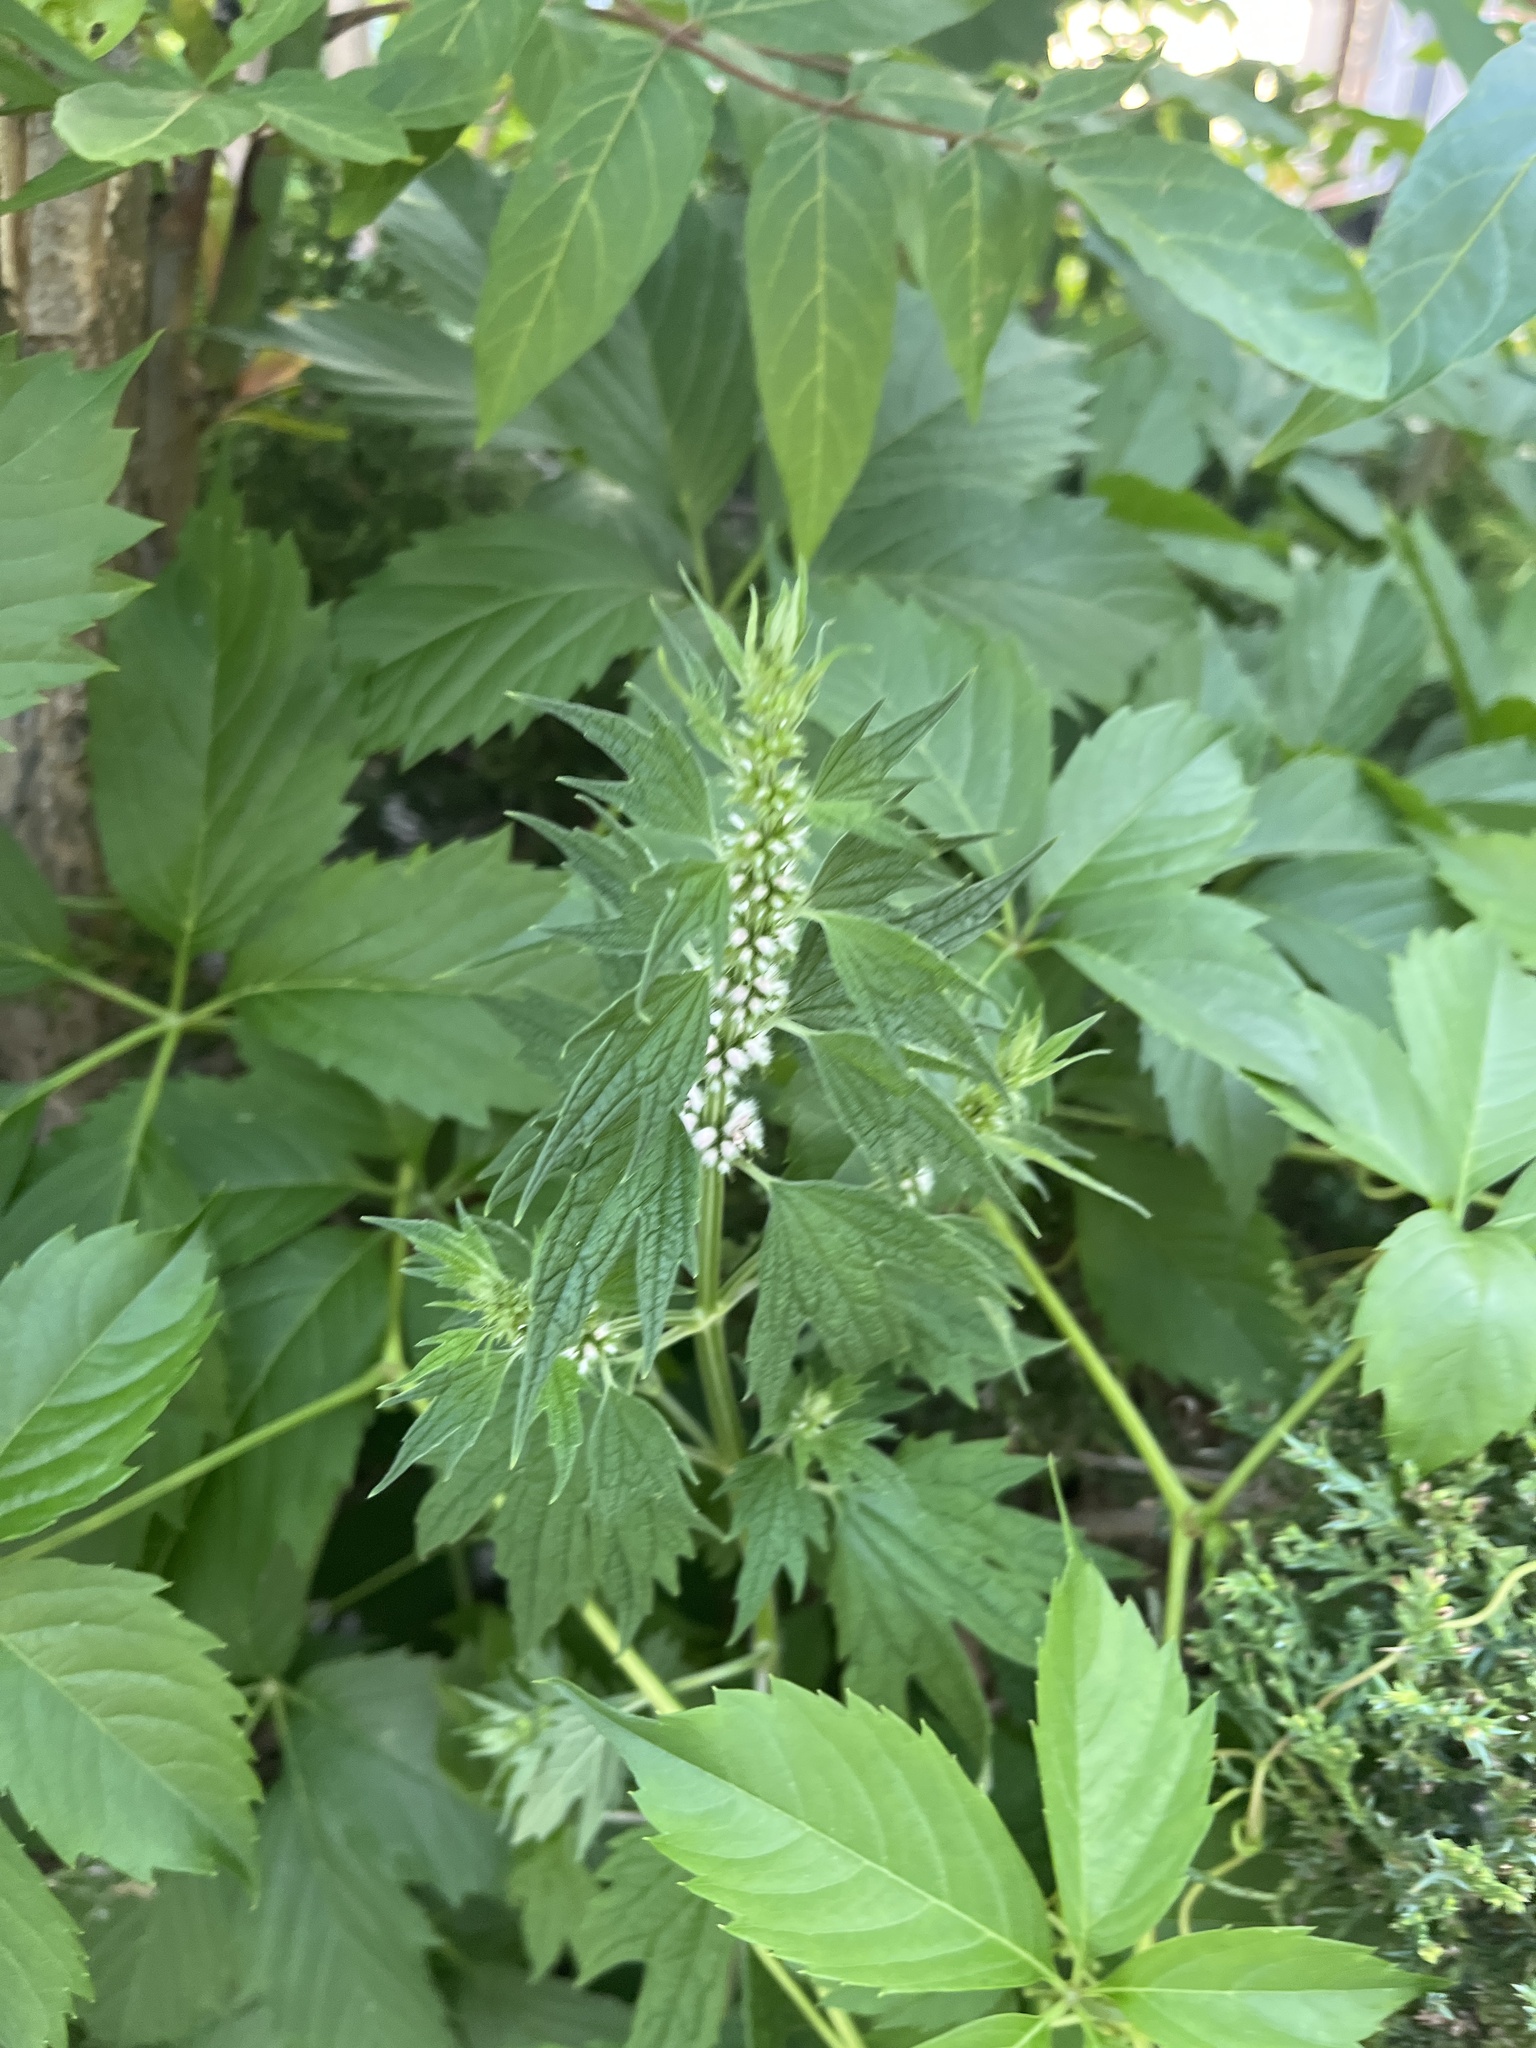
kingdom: Plantae
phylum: Tracheophyta
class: Magnoliopsida
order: Lamiales
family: Lamiaceae
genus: Leonurus
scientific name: Leonurus cardiaca
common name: Motherwort
